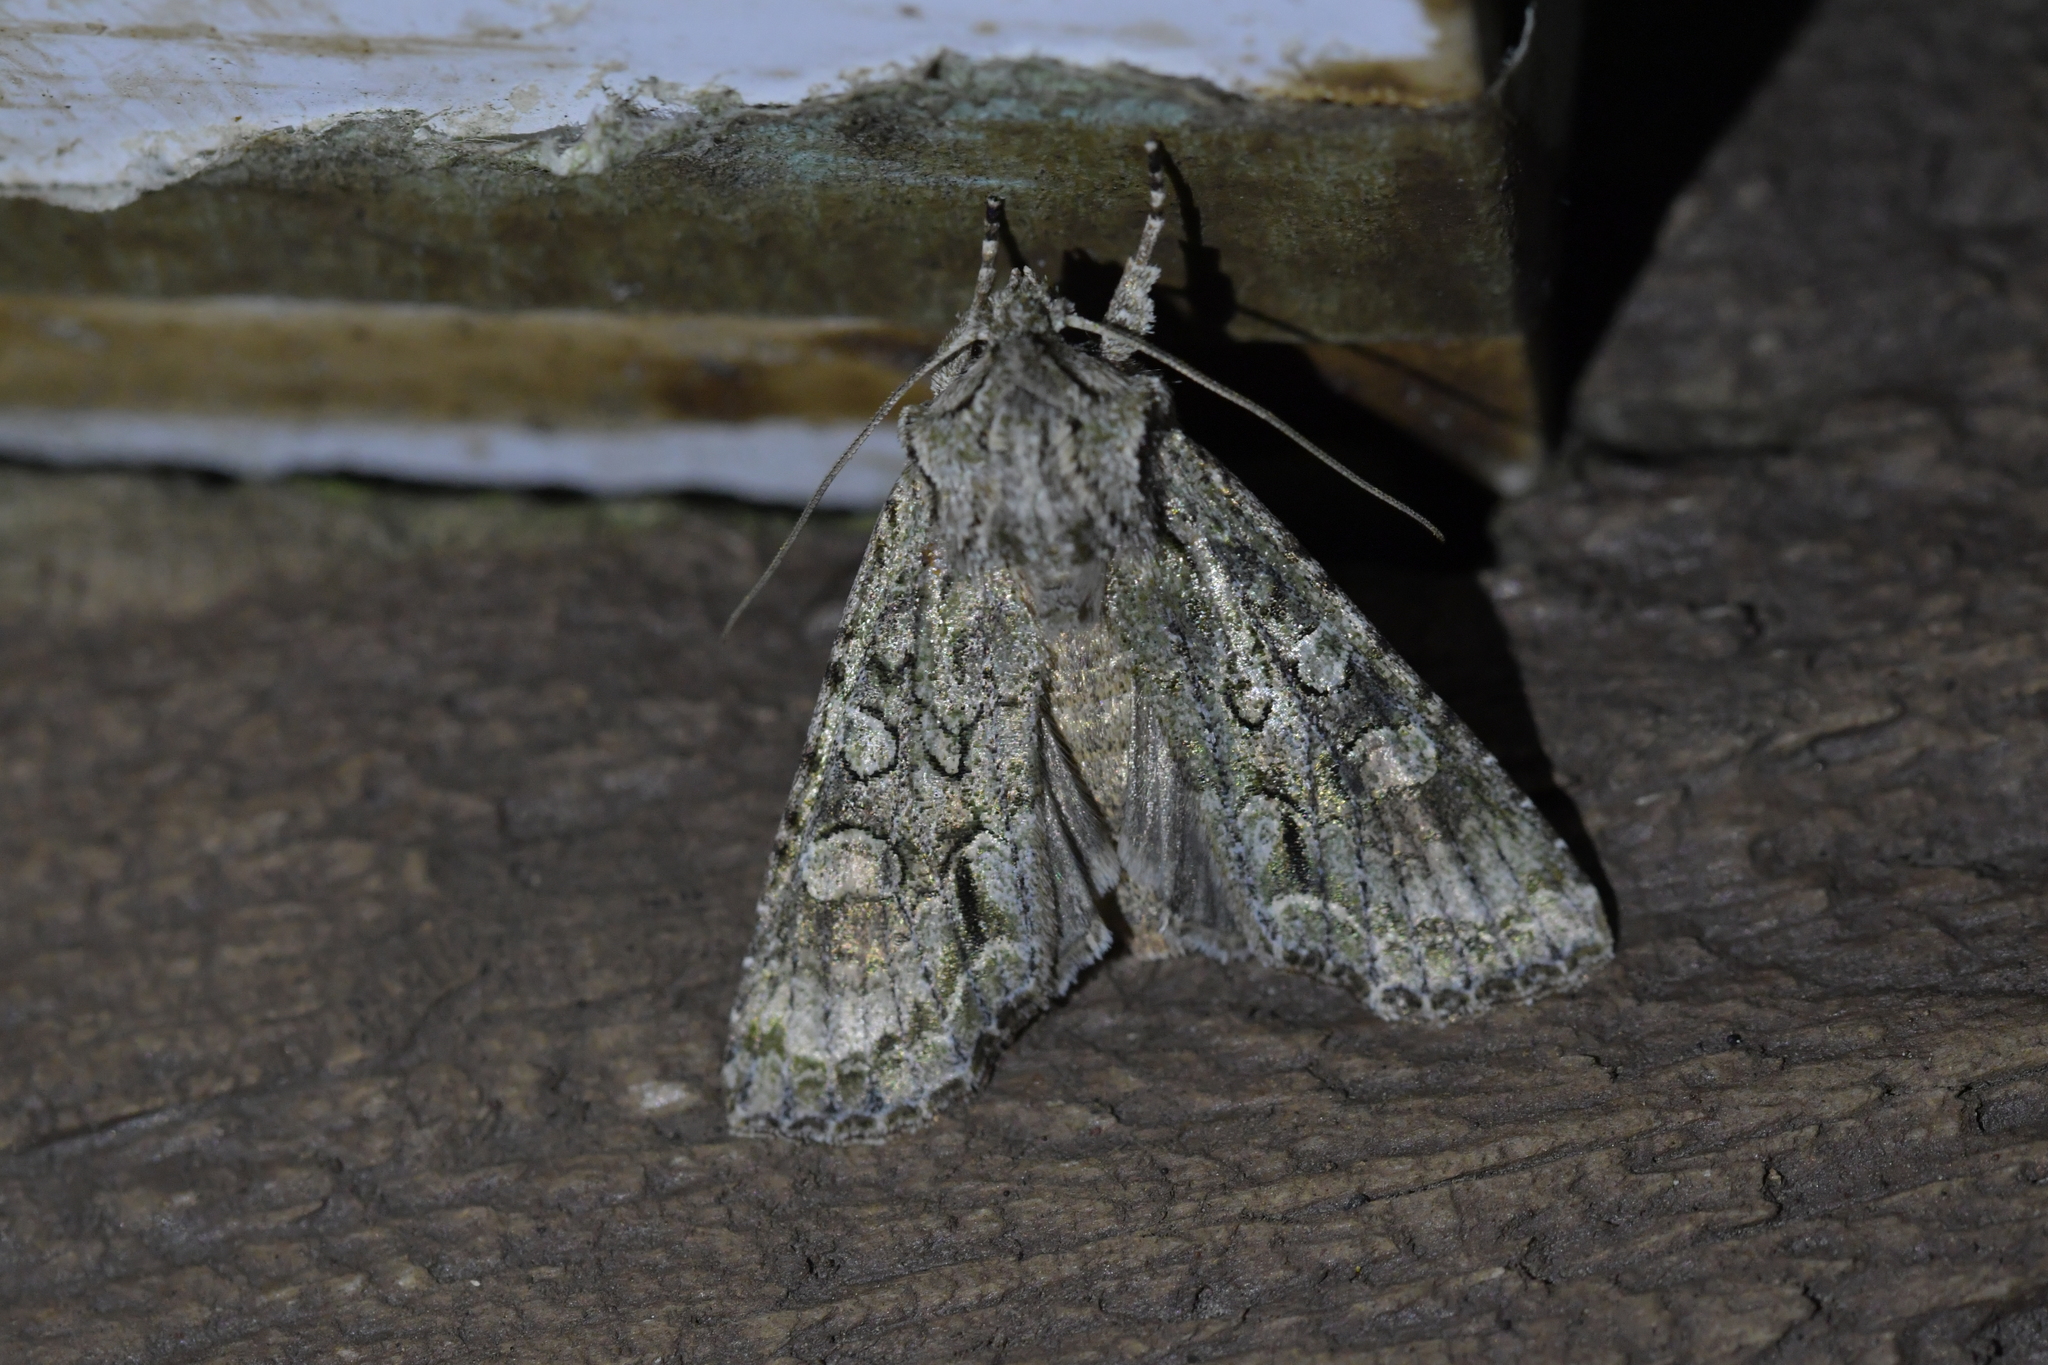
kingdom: Animalia
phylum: Arthropoda
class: Insecta
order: Lepidoptera
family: Noctuidae
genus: Ichneutica
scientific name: Ichneutica mutans
